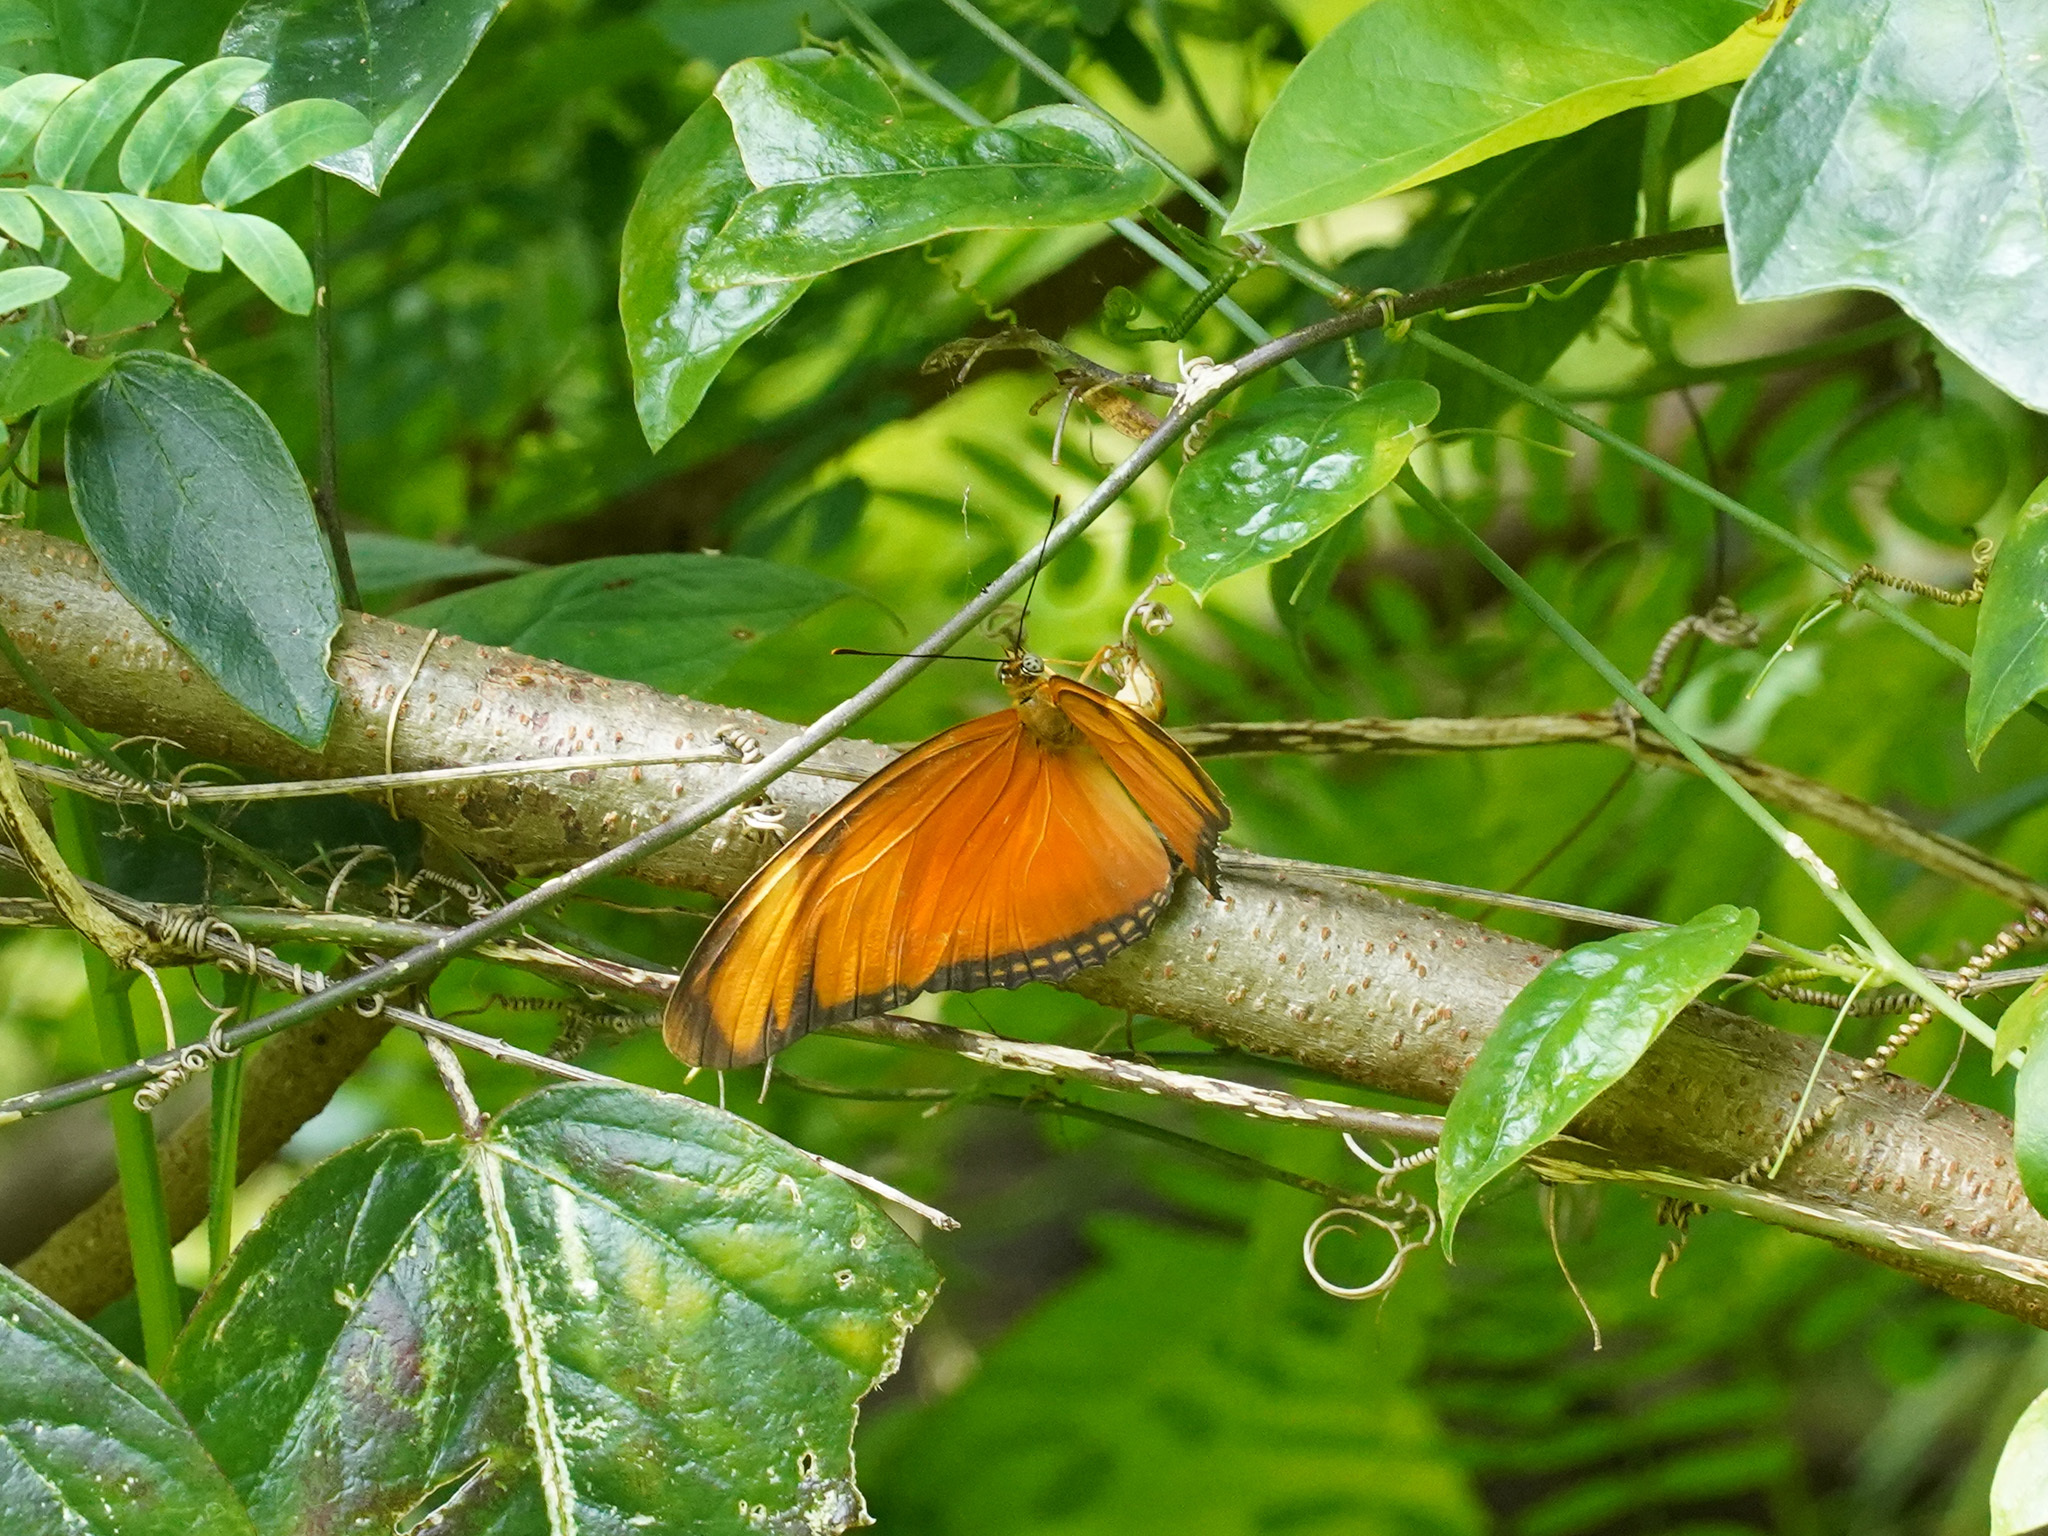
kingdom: Animalia
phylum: Arthropoda
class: Insecta
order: Lepidoptera
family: Nymphalidae
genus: Dryas
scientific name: Dryas iulia
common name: Flambeau
